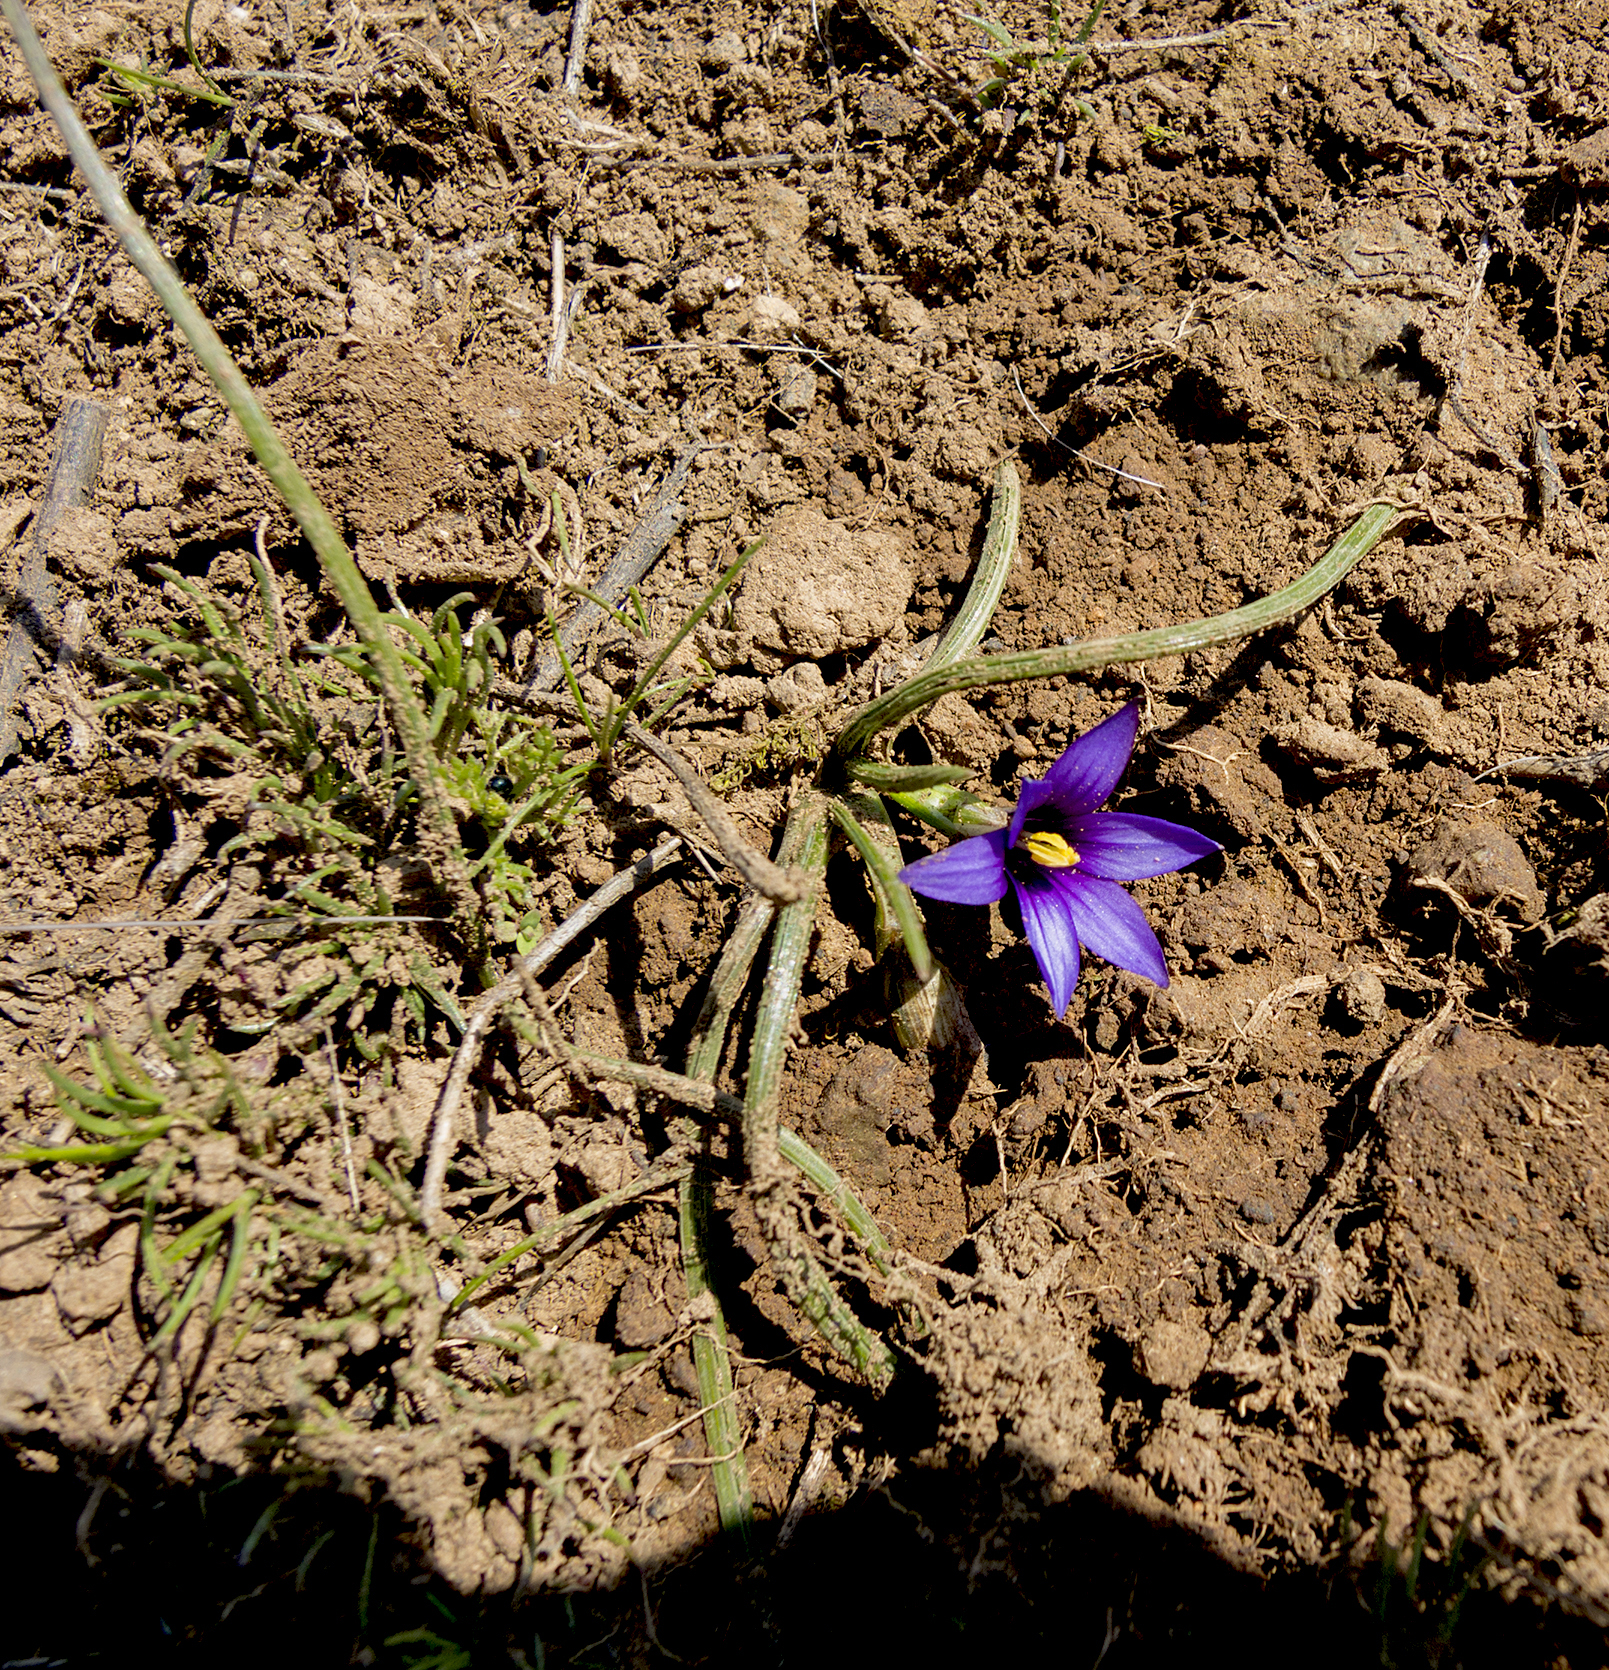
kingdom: Plantae
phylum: Tracheophyta
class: Liliopsida
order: Asparagales
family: Iridaceae
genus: Romulea
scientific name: Romulea linaresii
